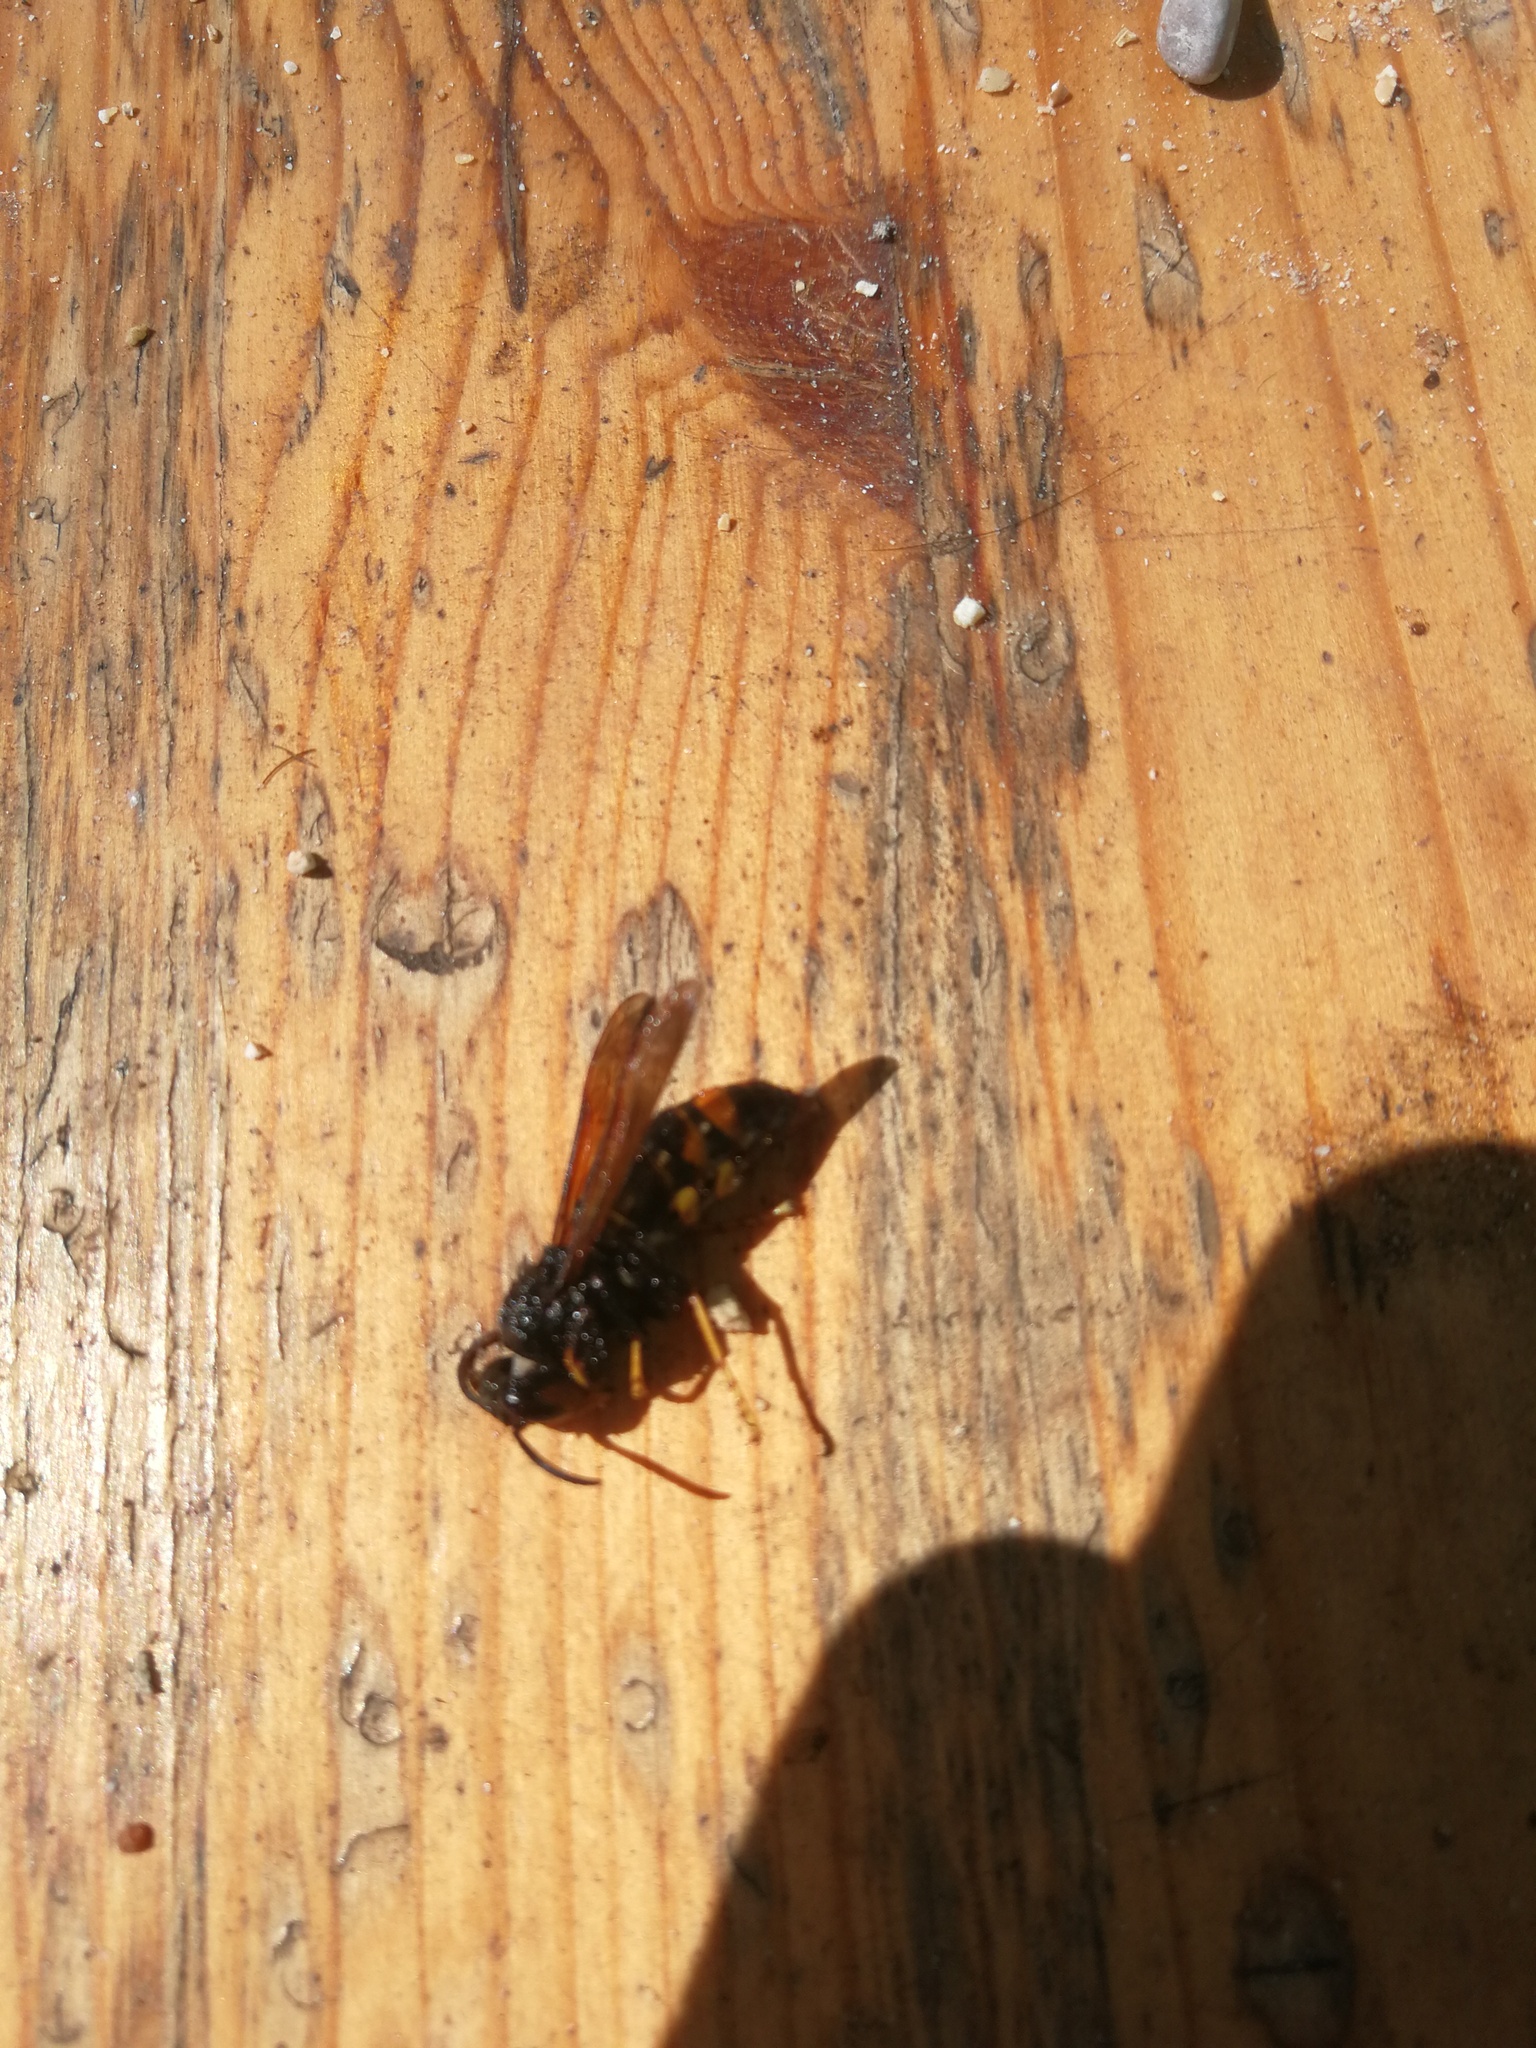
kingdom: Animalia
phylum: Arthropoda
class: Insecta
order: Hymenoptera
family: Vespidae
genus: Vespa
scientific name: Vespa velutina
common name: Asian hornet
